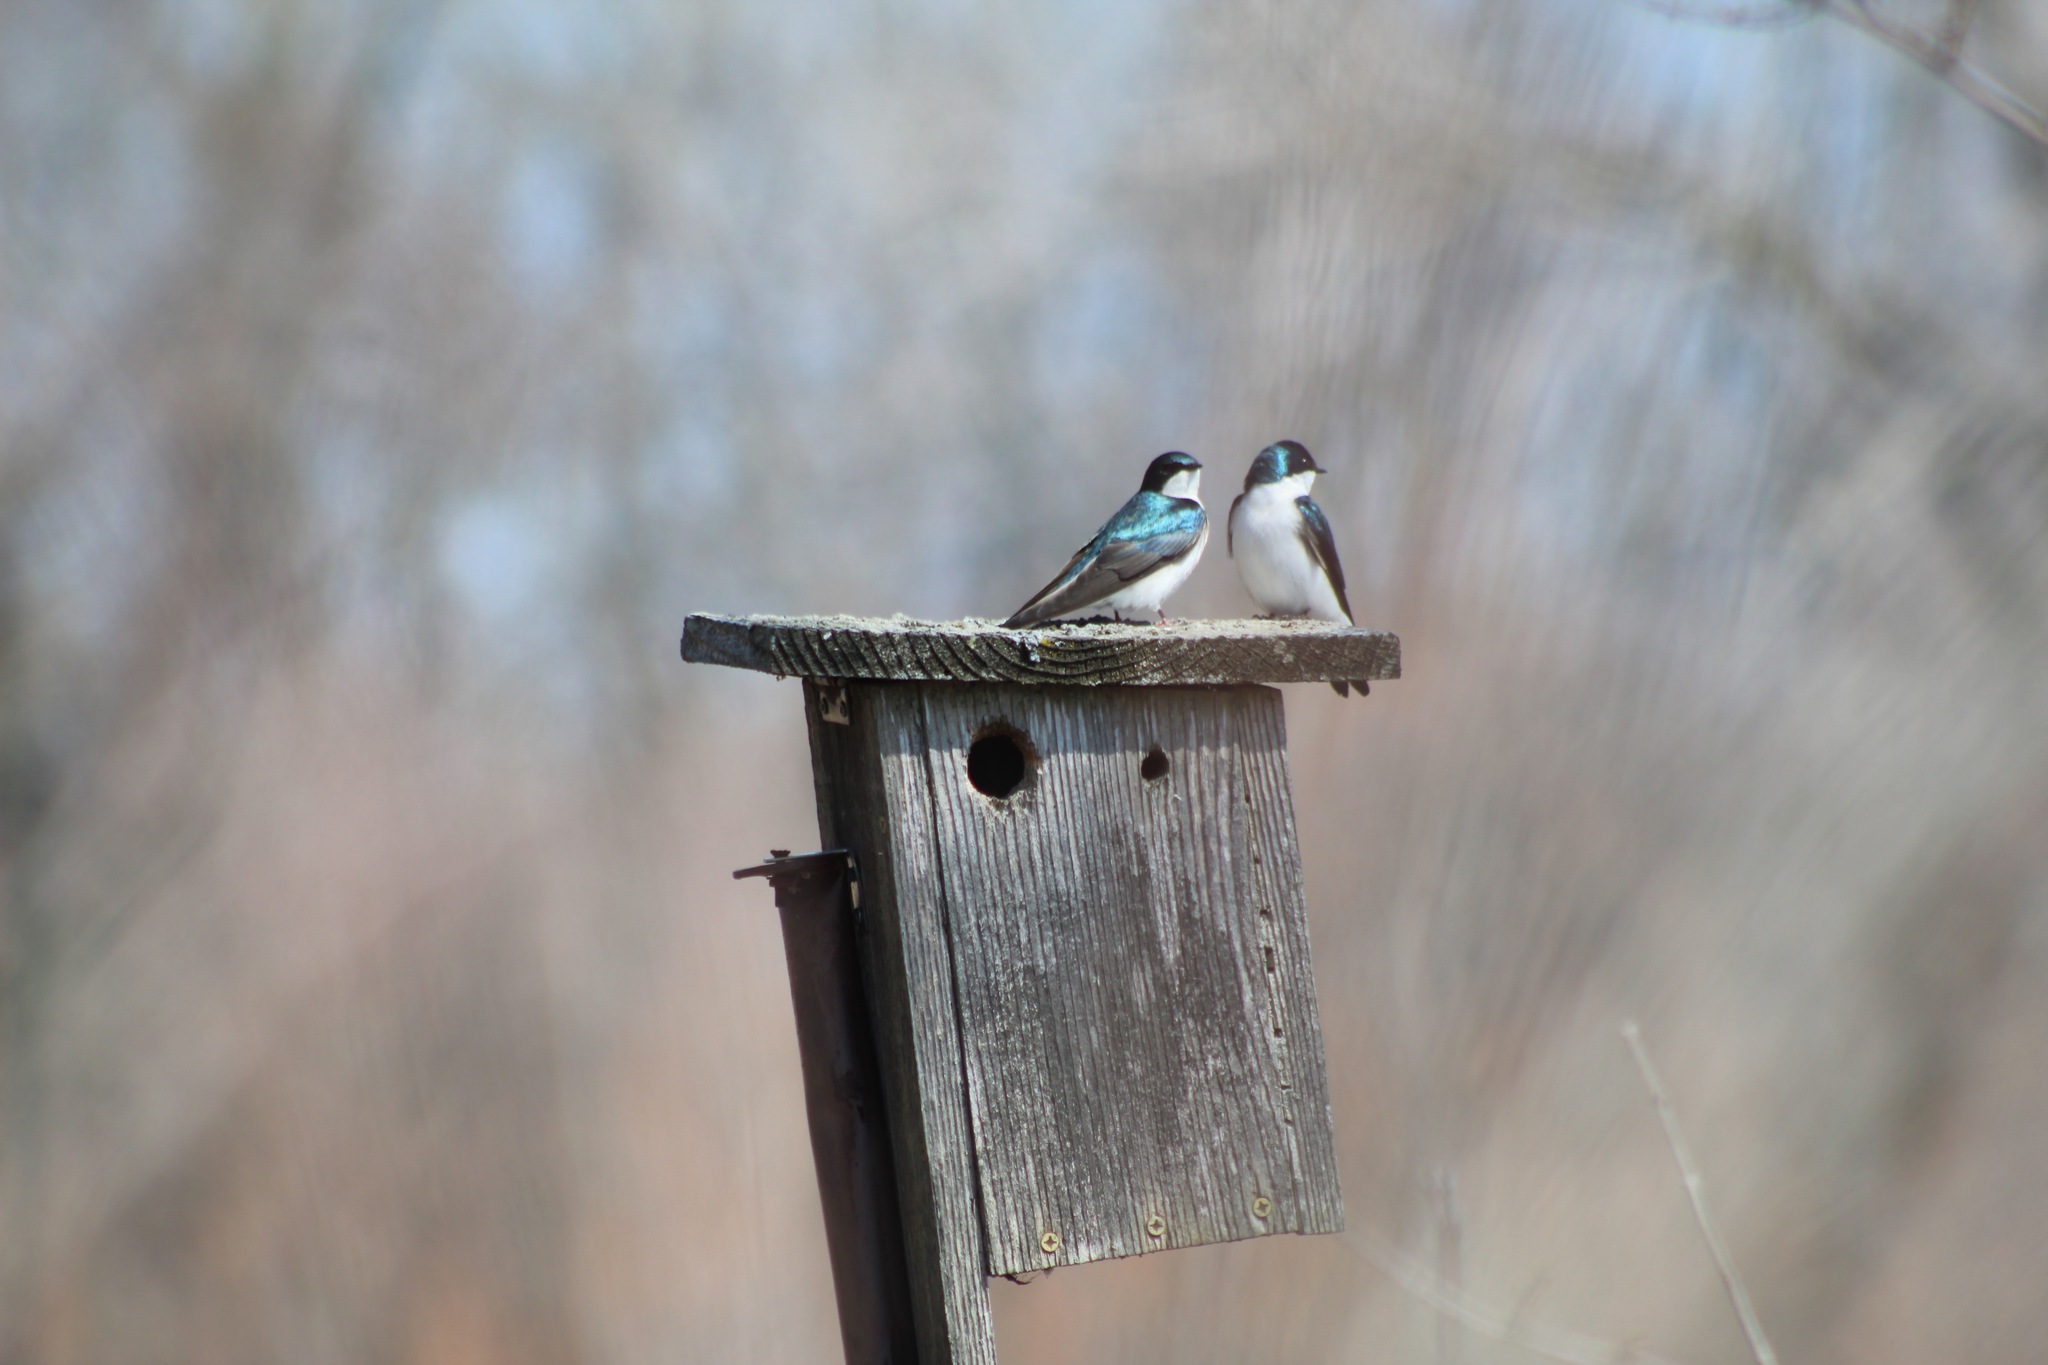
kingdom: Animalia
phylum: Chordata
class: Aves
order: Passeriformes
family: Hirundinidae
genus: Tachycineta
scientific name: Tachycineta bicolor
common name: Tree swallow
